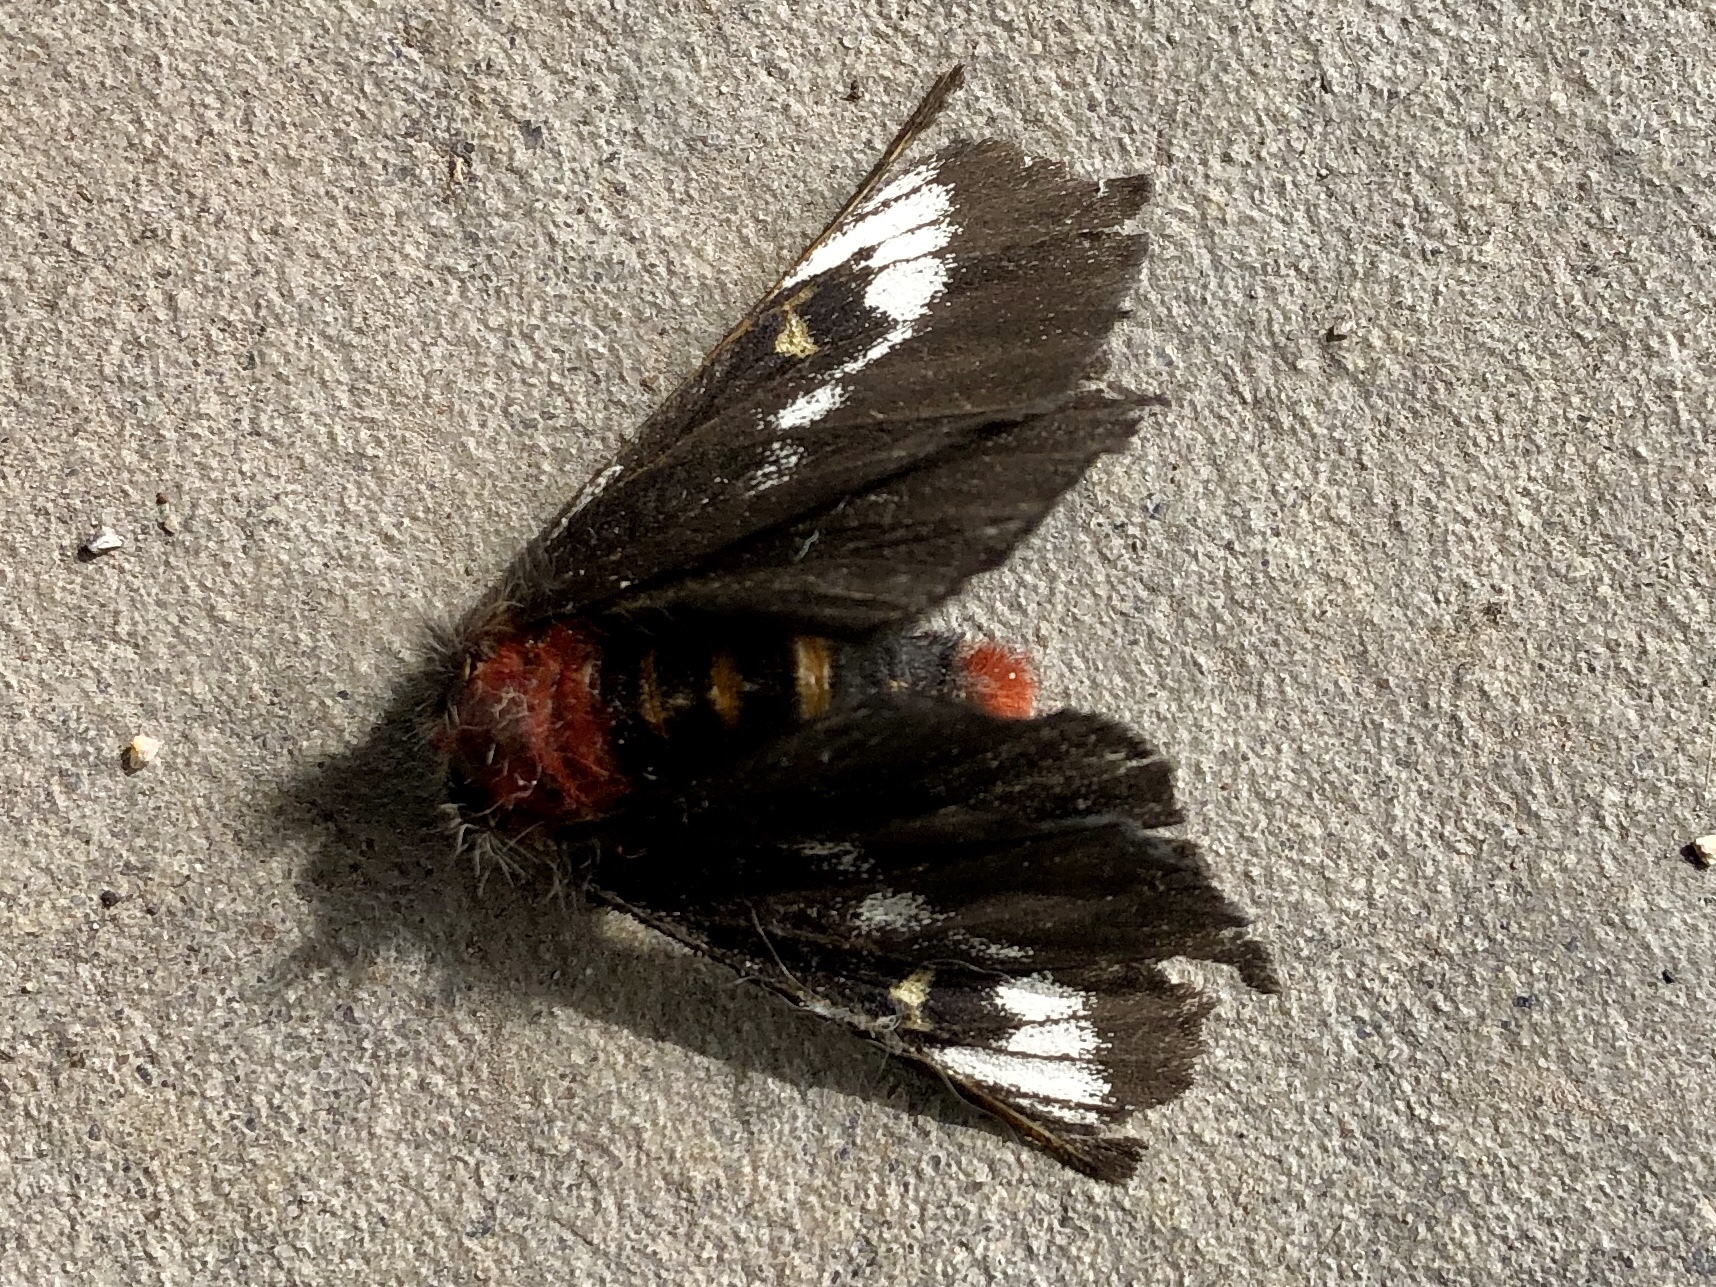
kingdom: Animalia
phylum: Arthropoda
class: Insecta
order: Lepidoptera
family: Saturniidae
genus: Hemileuca
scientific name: Hemileuca juno
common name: Juno buckmoth
